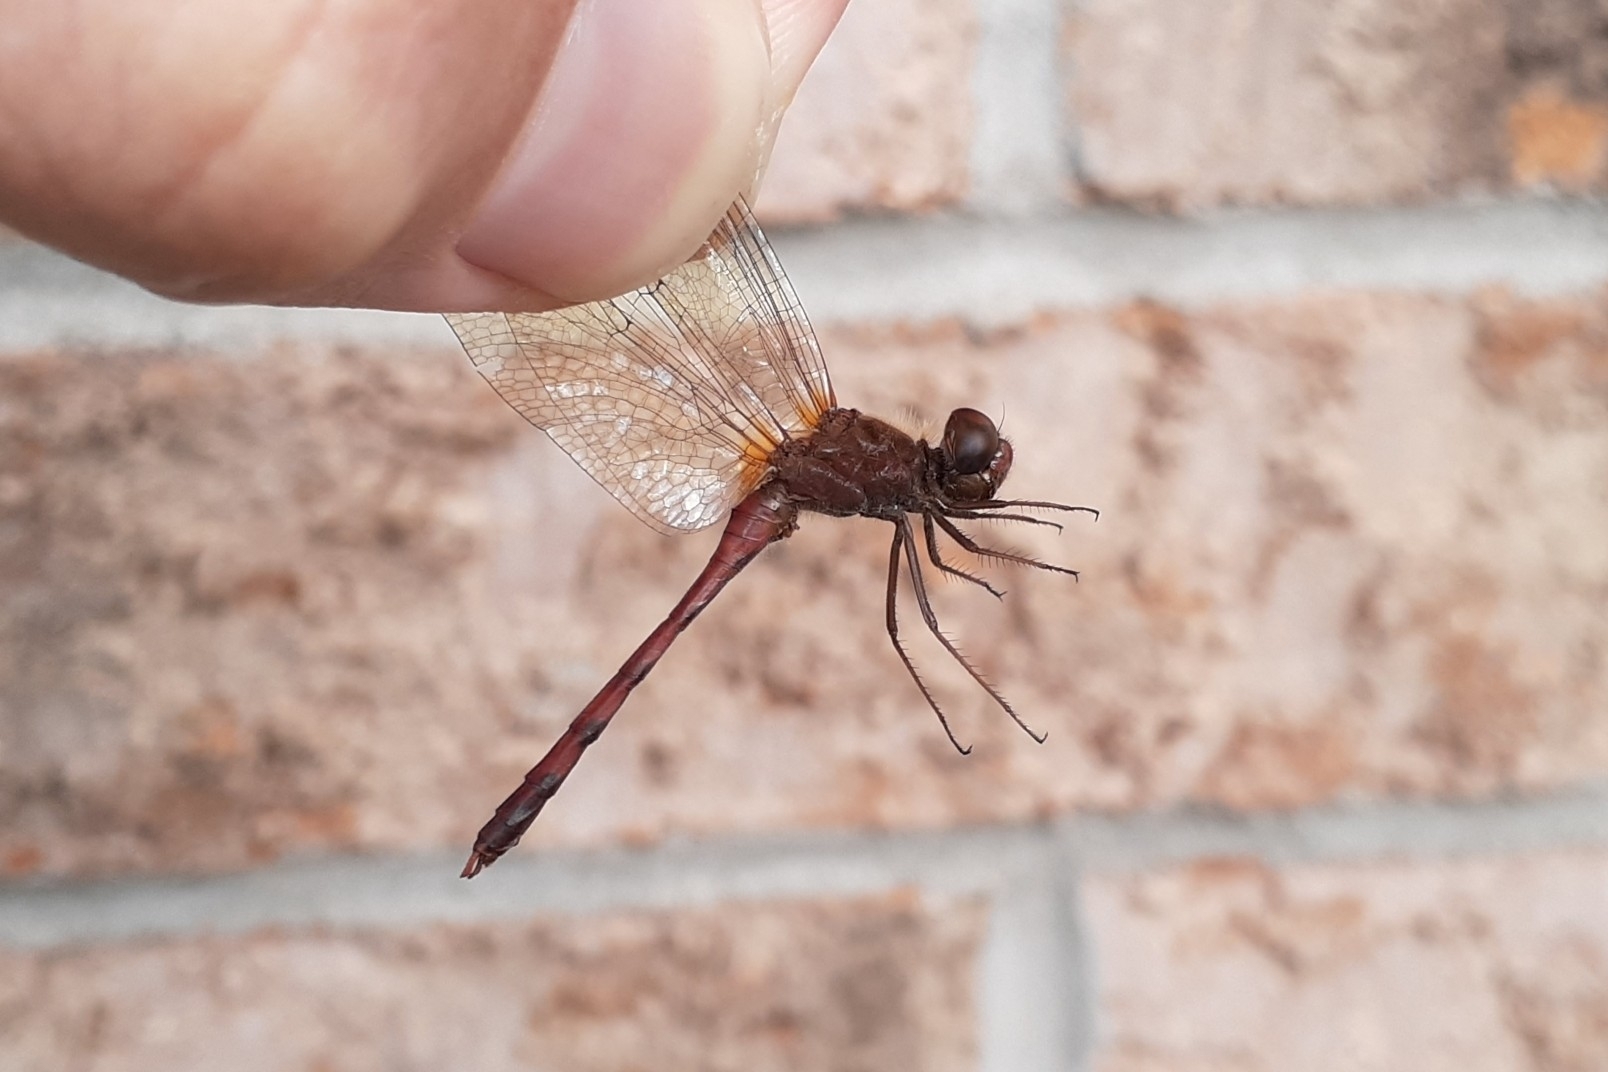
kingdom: Animalia
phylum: Arthropoda
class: Insecta
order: Odonata
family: Libellulidae
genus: Sympetrum
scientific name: Sympetrum vicinum
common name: Autumn meadowhawk
